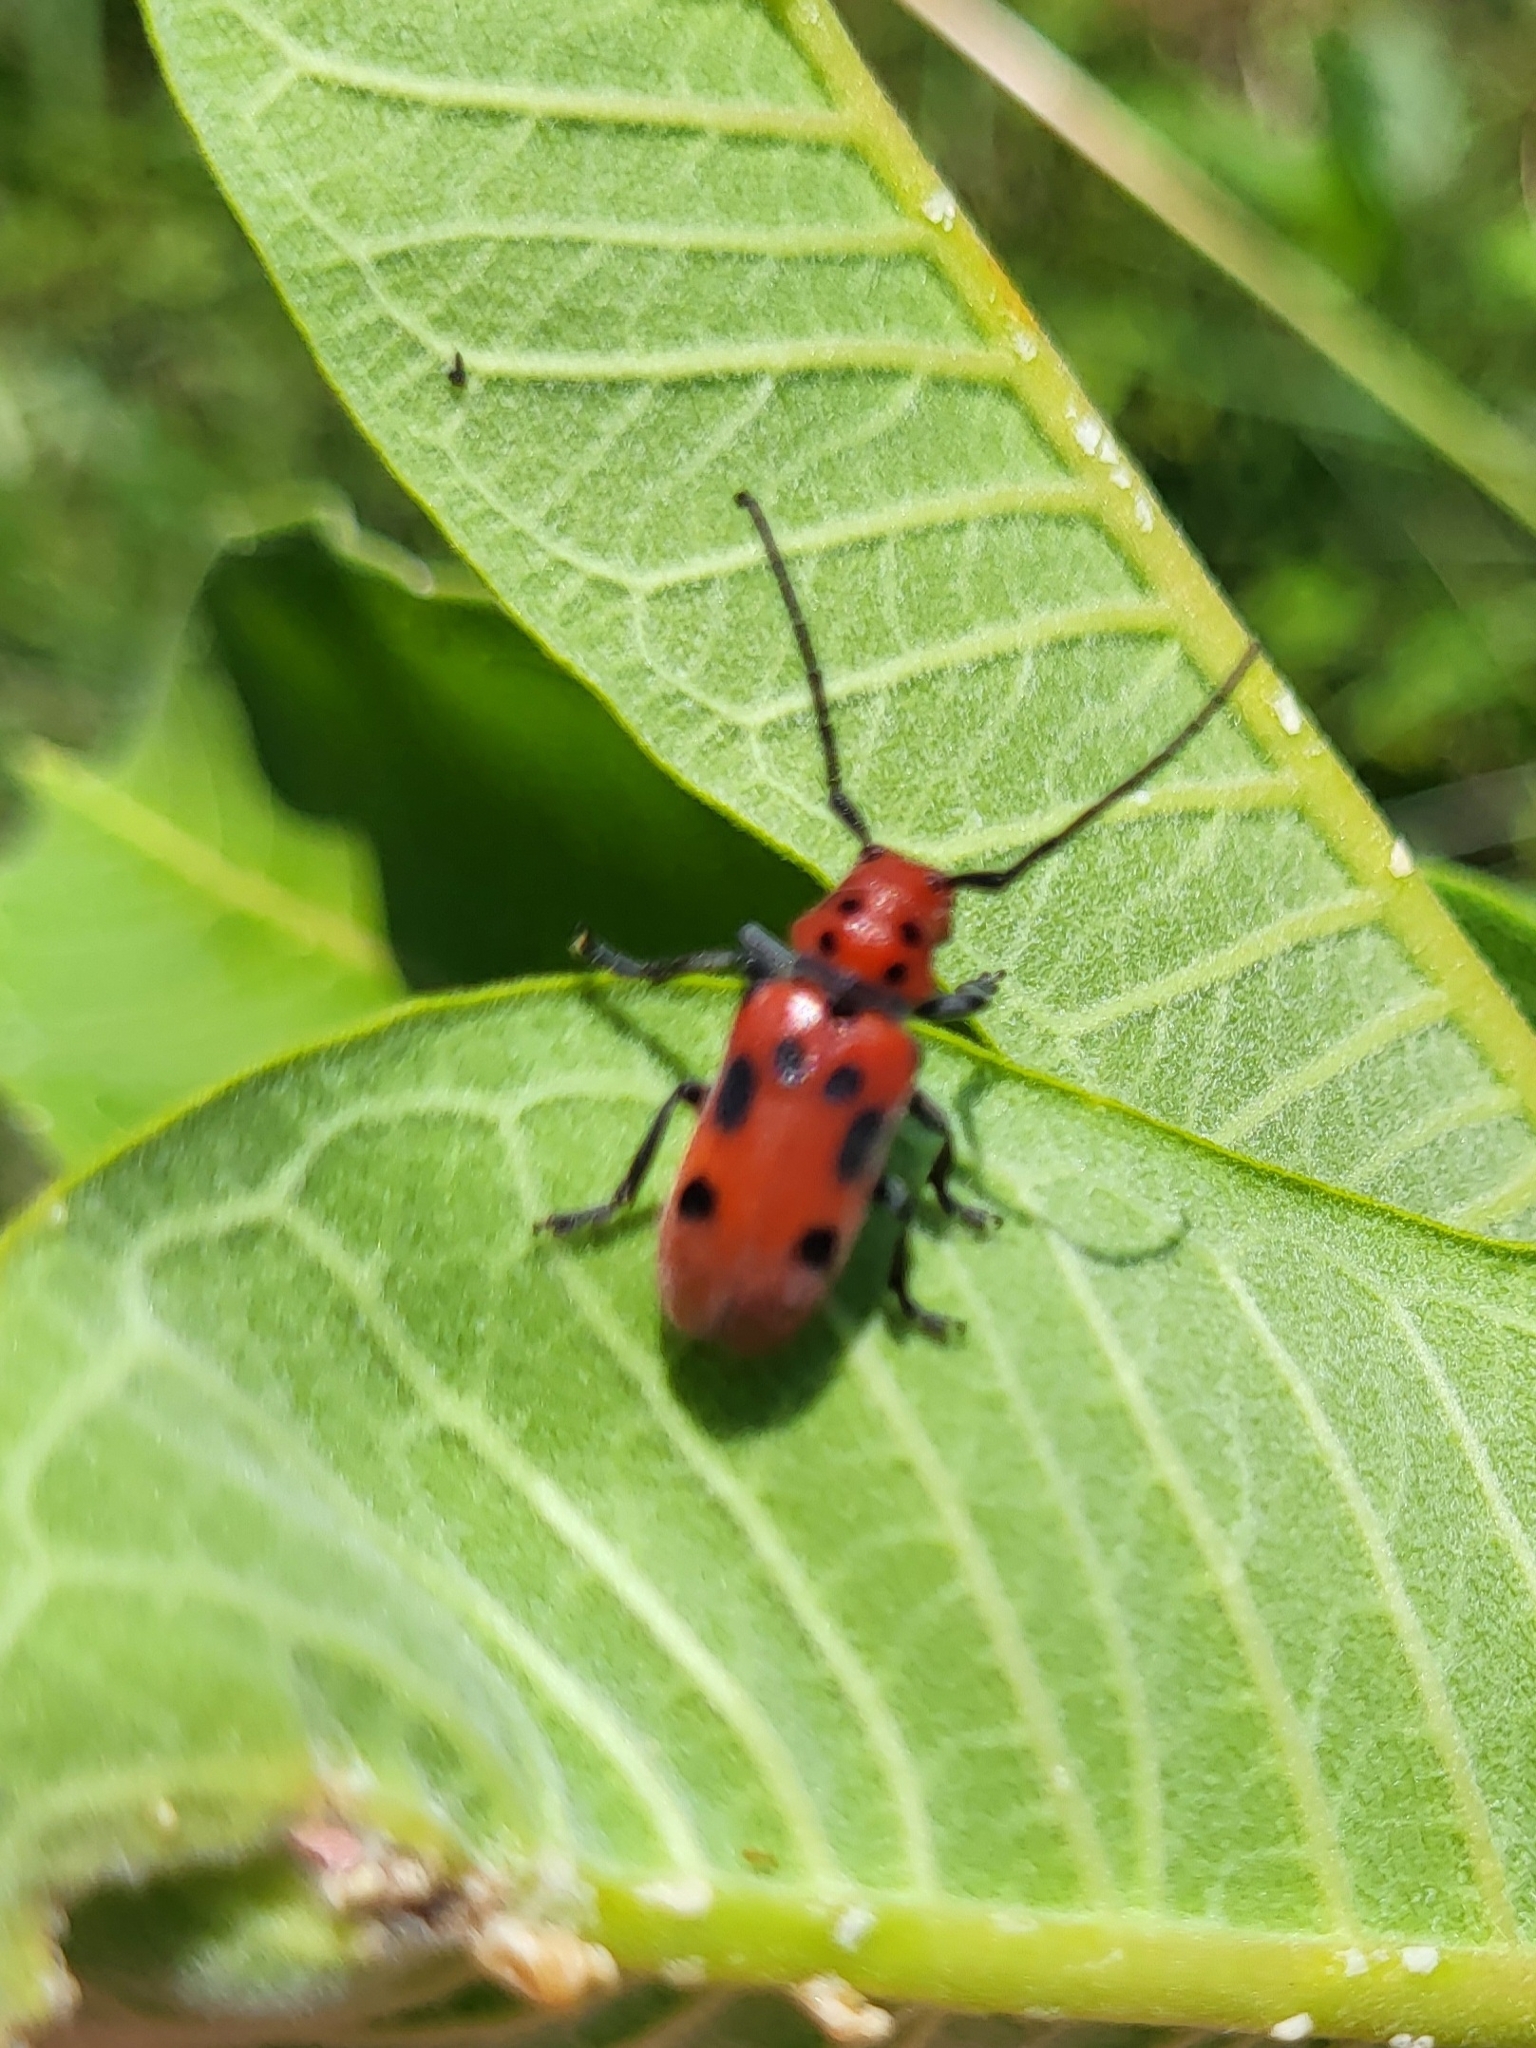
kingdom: Animalia
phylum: Arthropoda
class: Insecta
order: Coleoptera
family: Cerambycidae
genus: Tetraopes
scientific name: Tetraopes tetrophthalmus
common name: Red milkweed beetle
